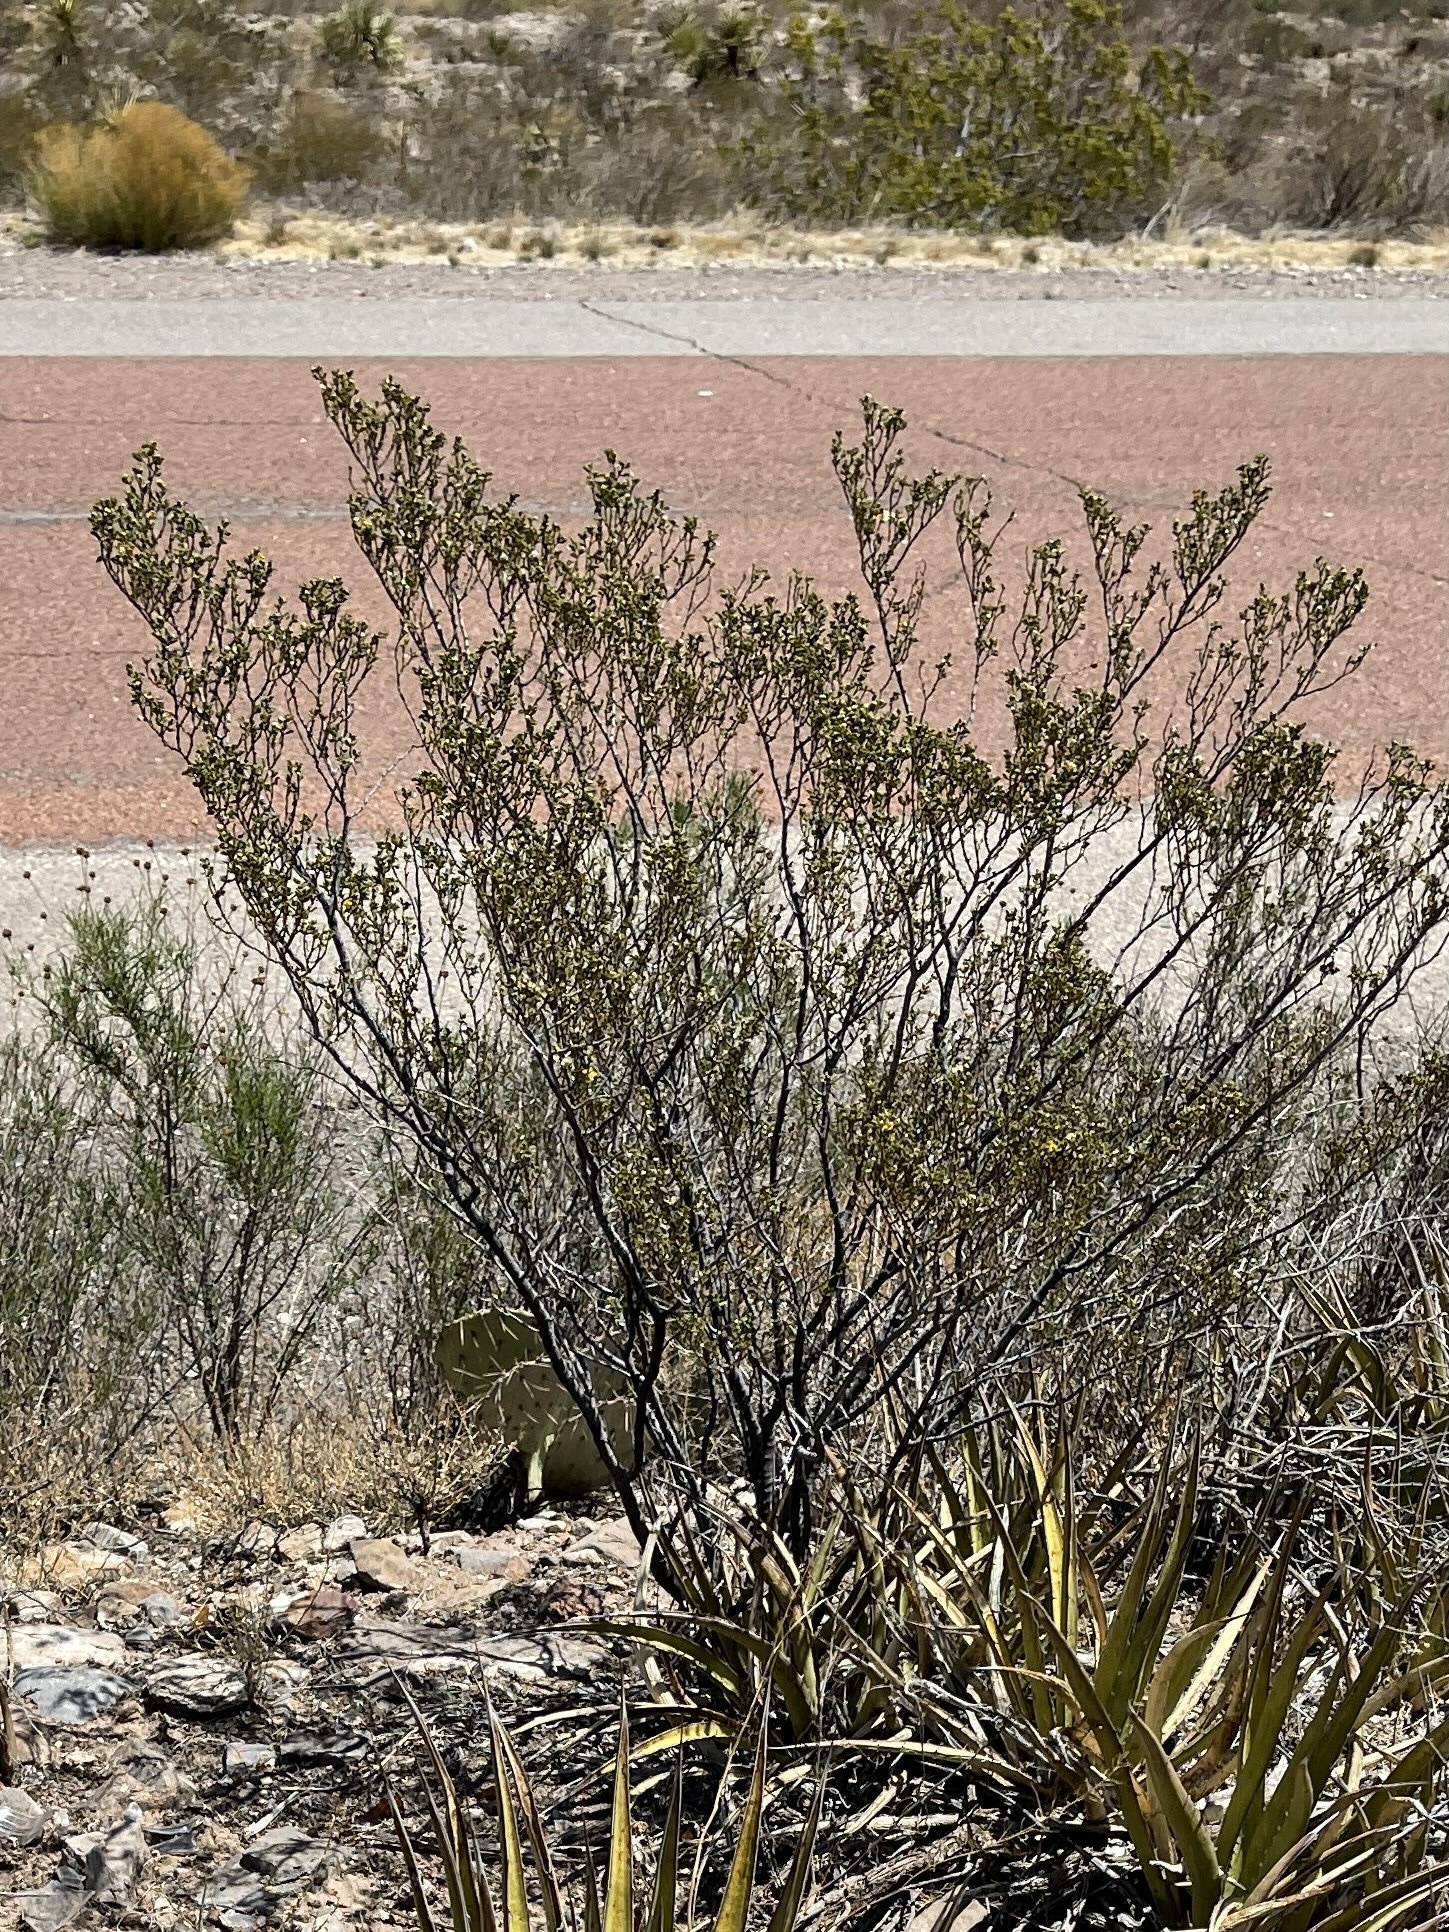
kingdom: Plantae
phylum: Tracheophyta
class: Magnoliopsida
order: Zygophyllales
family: Zygophyllaceae
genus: Larrea
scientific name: Larrea tridentata
